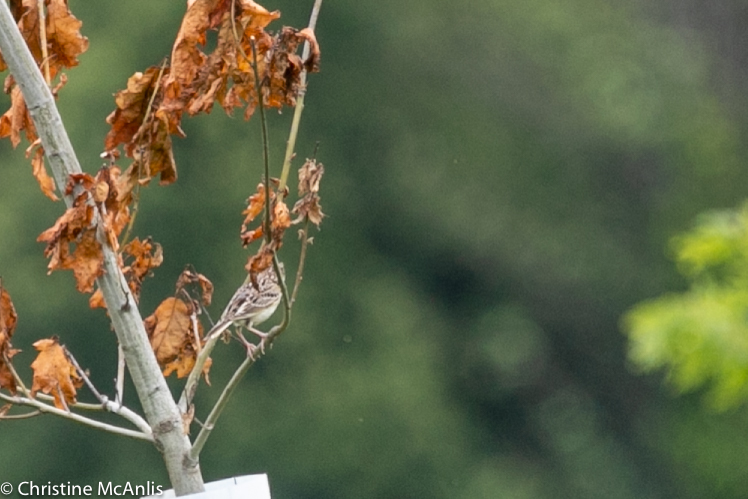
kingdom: Animalia
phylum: Chordata
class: Aves
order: Passeriformes
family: Passerellidae
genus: Ammodramus
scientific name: Ammodramus savannarum
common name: Grasshopper sparrow
